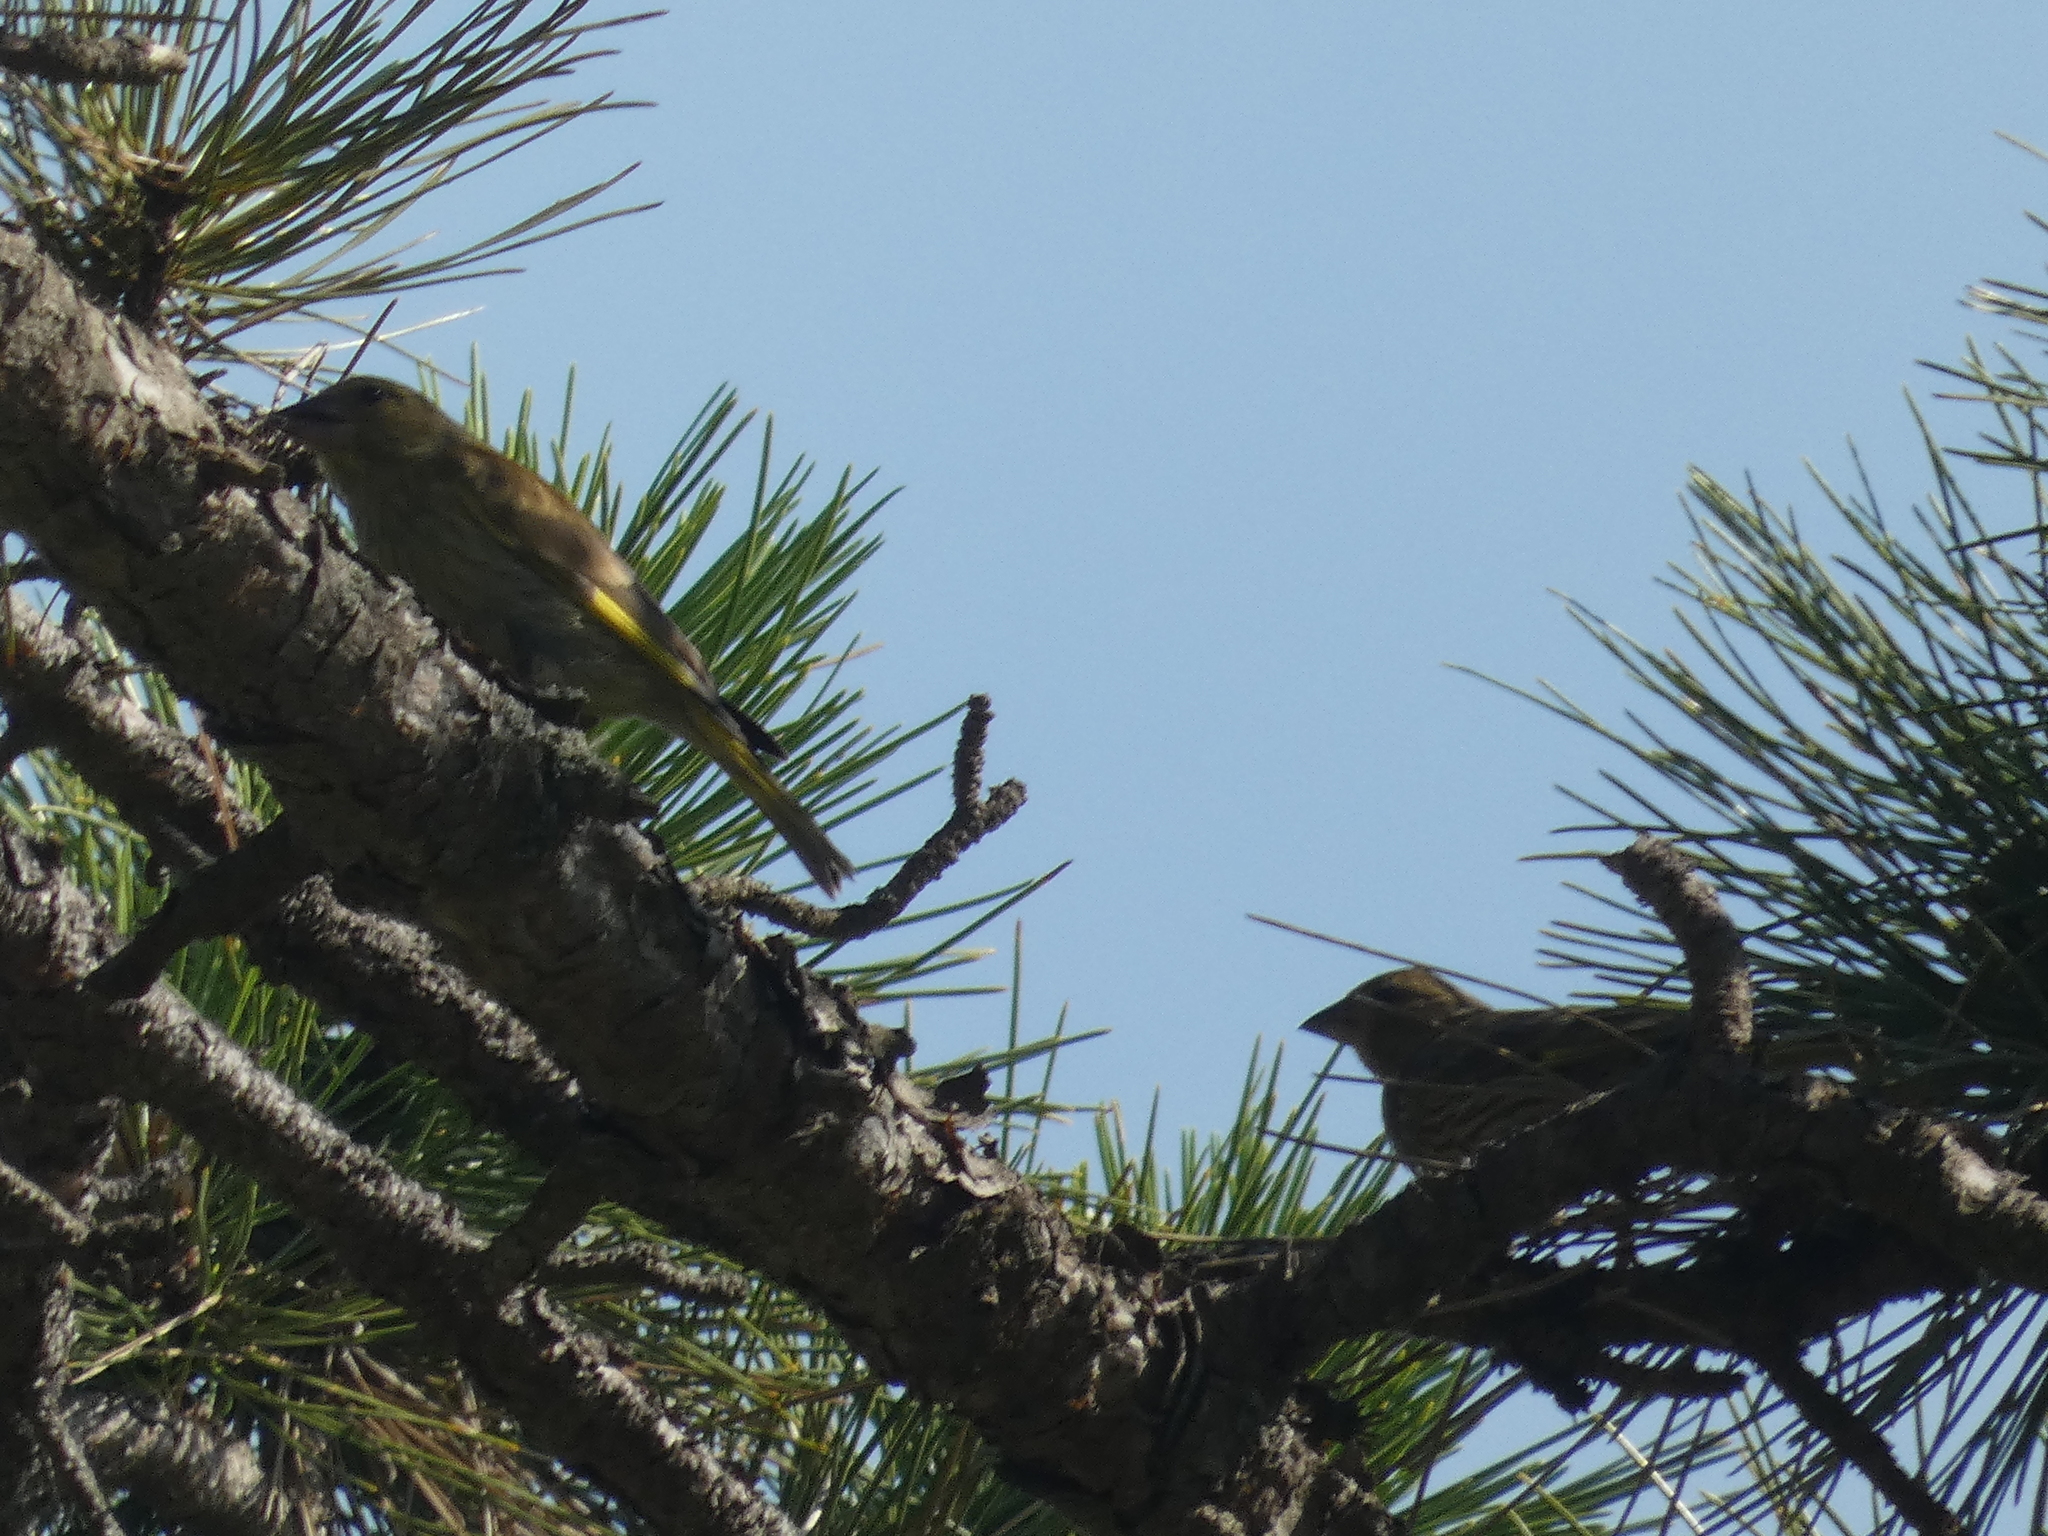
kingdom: Plantae
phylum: Tracheophyta
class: Liliopsida
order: Poales
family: Poaceae
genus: Chloris
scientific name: Chloris chloris
